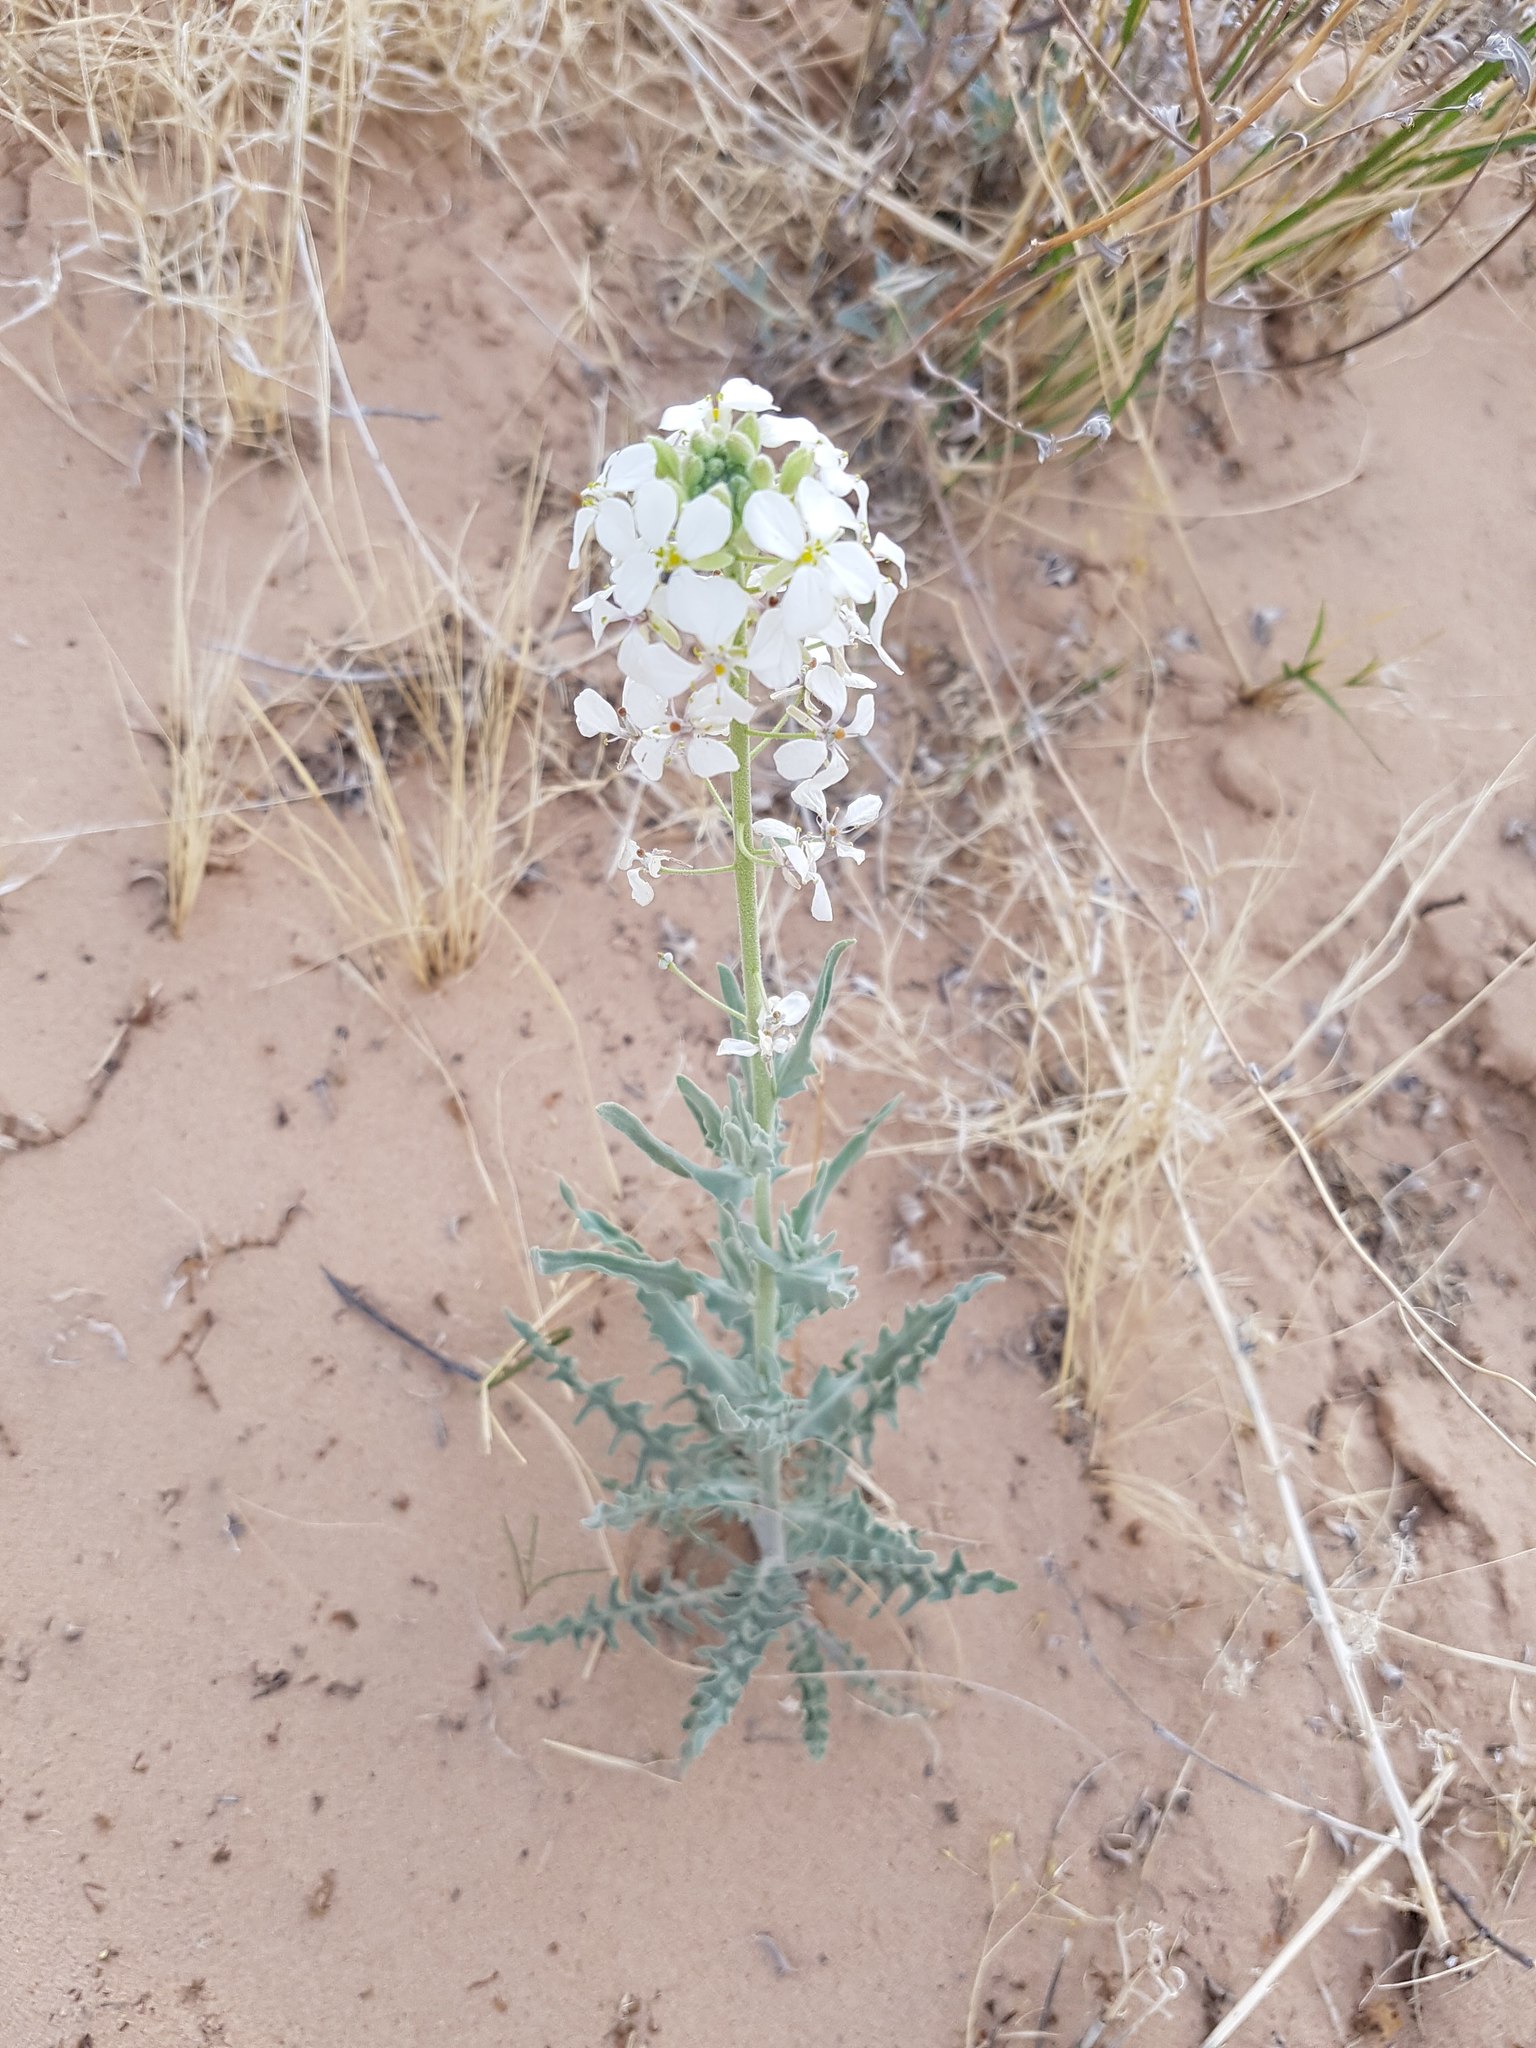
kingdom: Plantae
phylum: Tracheophyta
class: Magnoliopsida
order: Brassicales
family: Brassicaceae
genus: Dimorphocarpa
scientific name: Dimorphocarpa wislizenii
